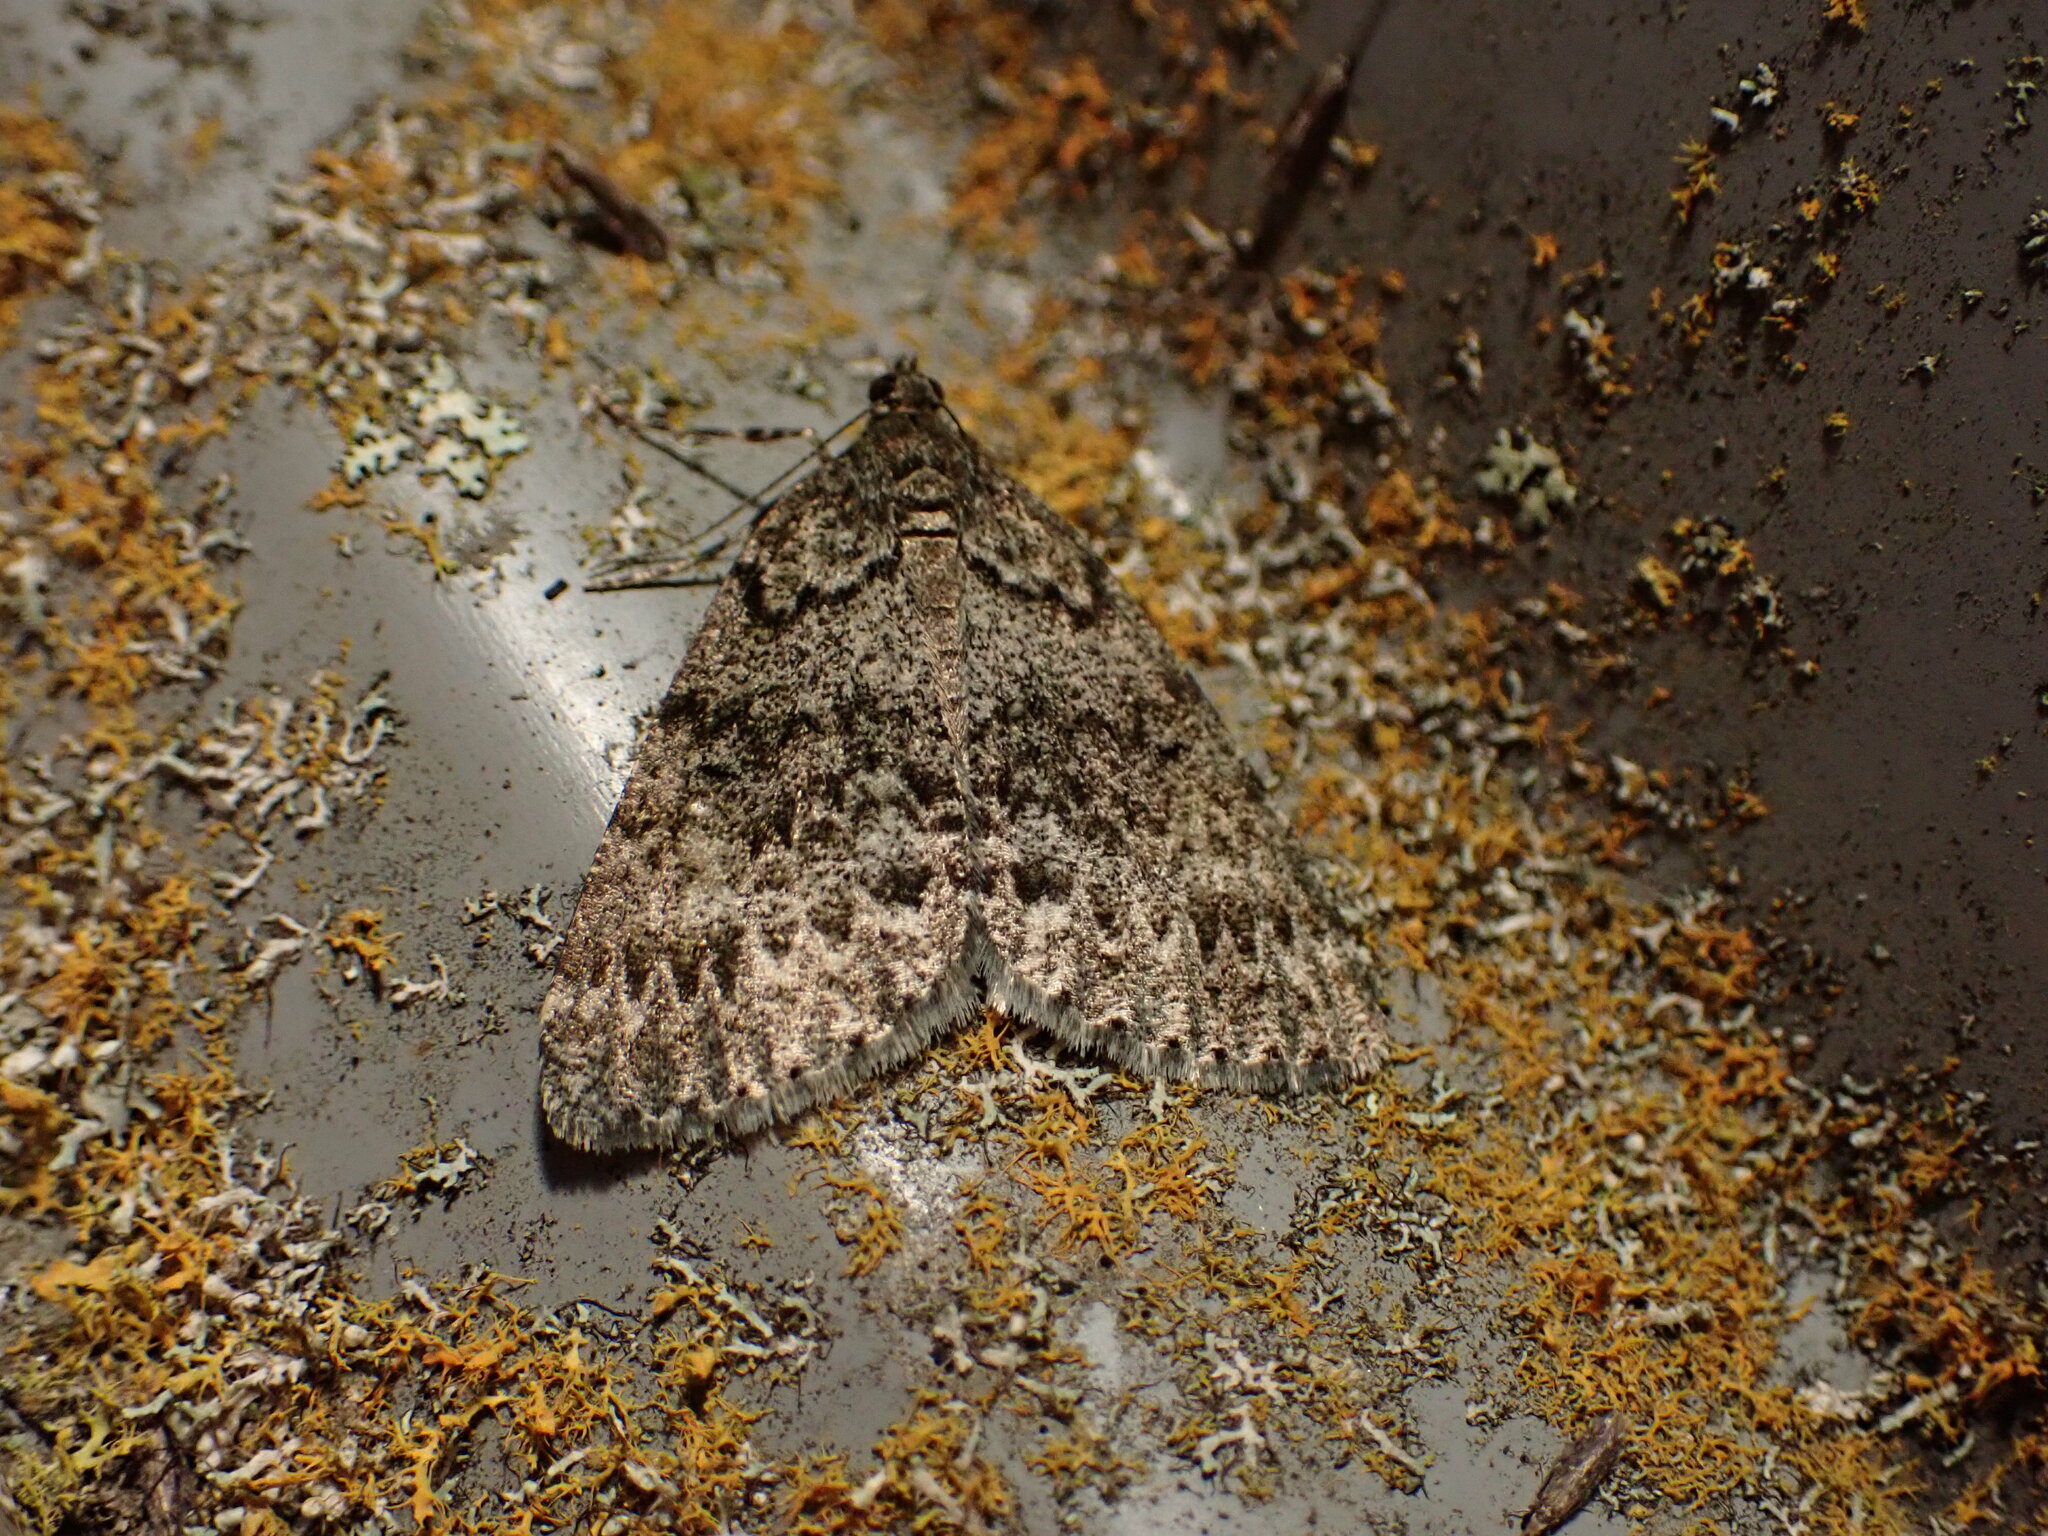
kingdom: Animalia
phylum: Arthropoda
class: Insecta
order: Lepidoptera
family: Geometridae
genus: Pseudocoremia
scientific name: Pseudocoremia indistincta
